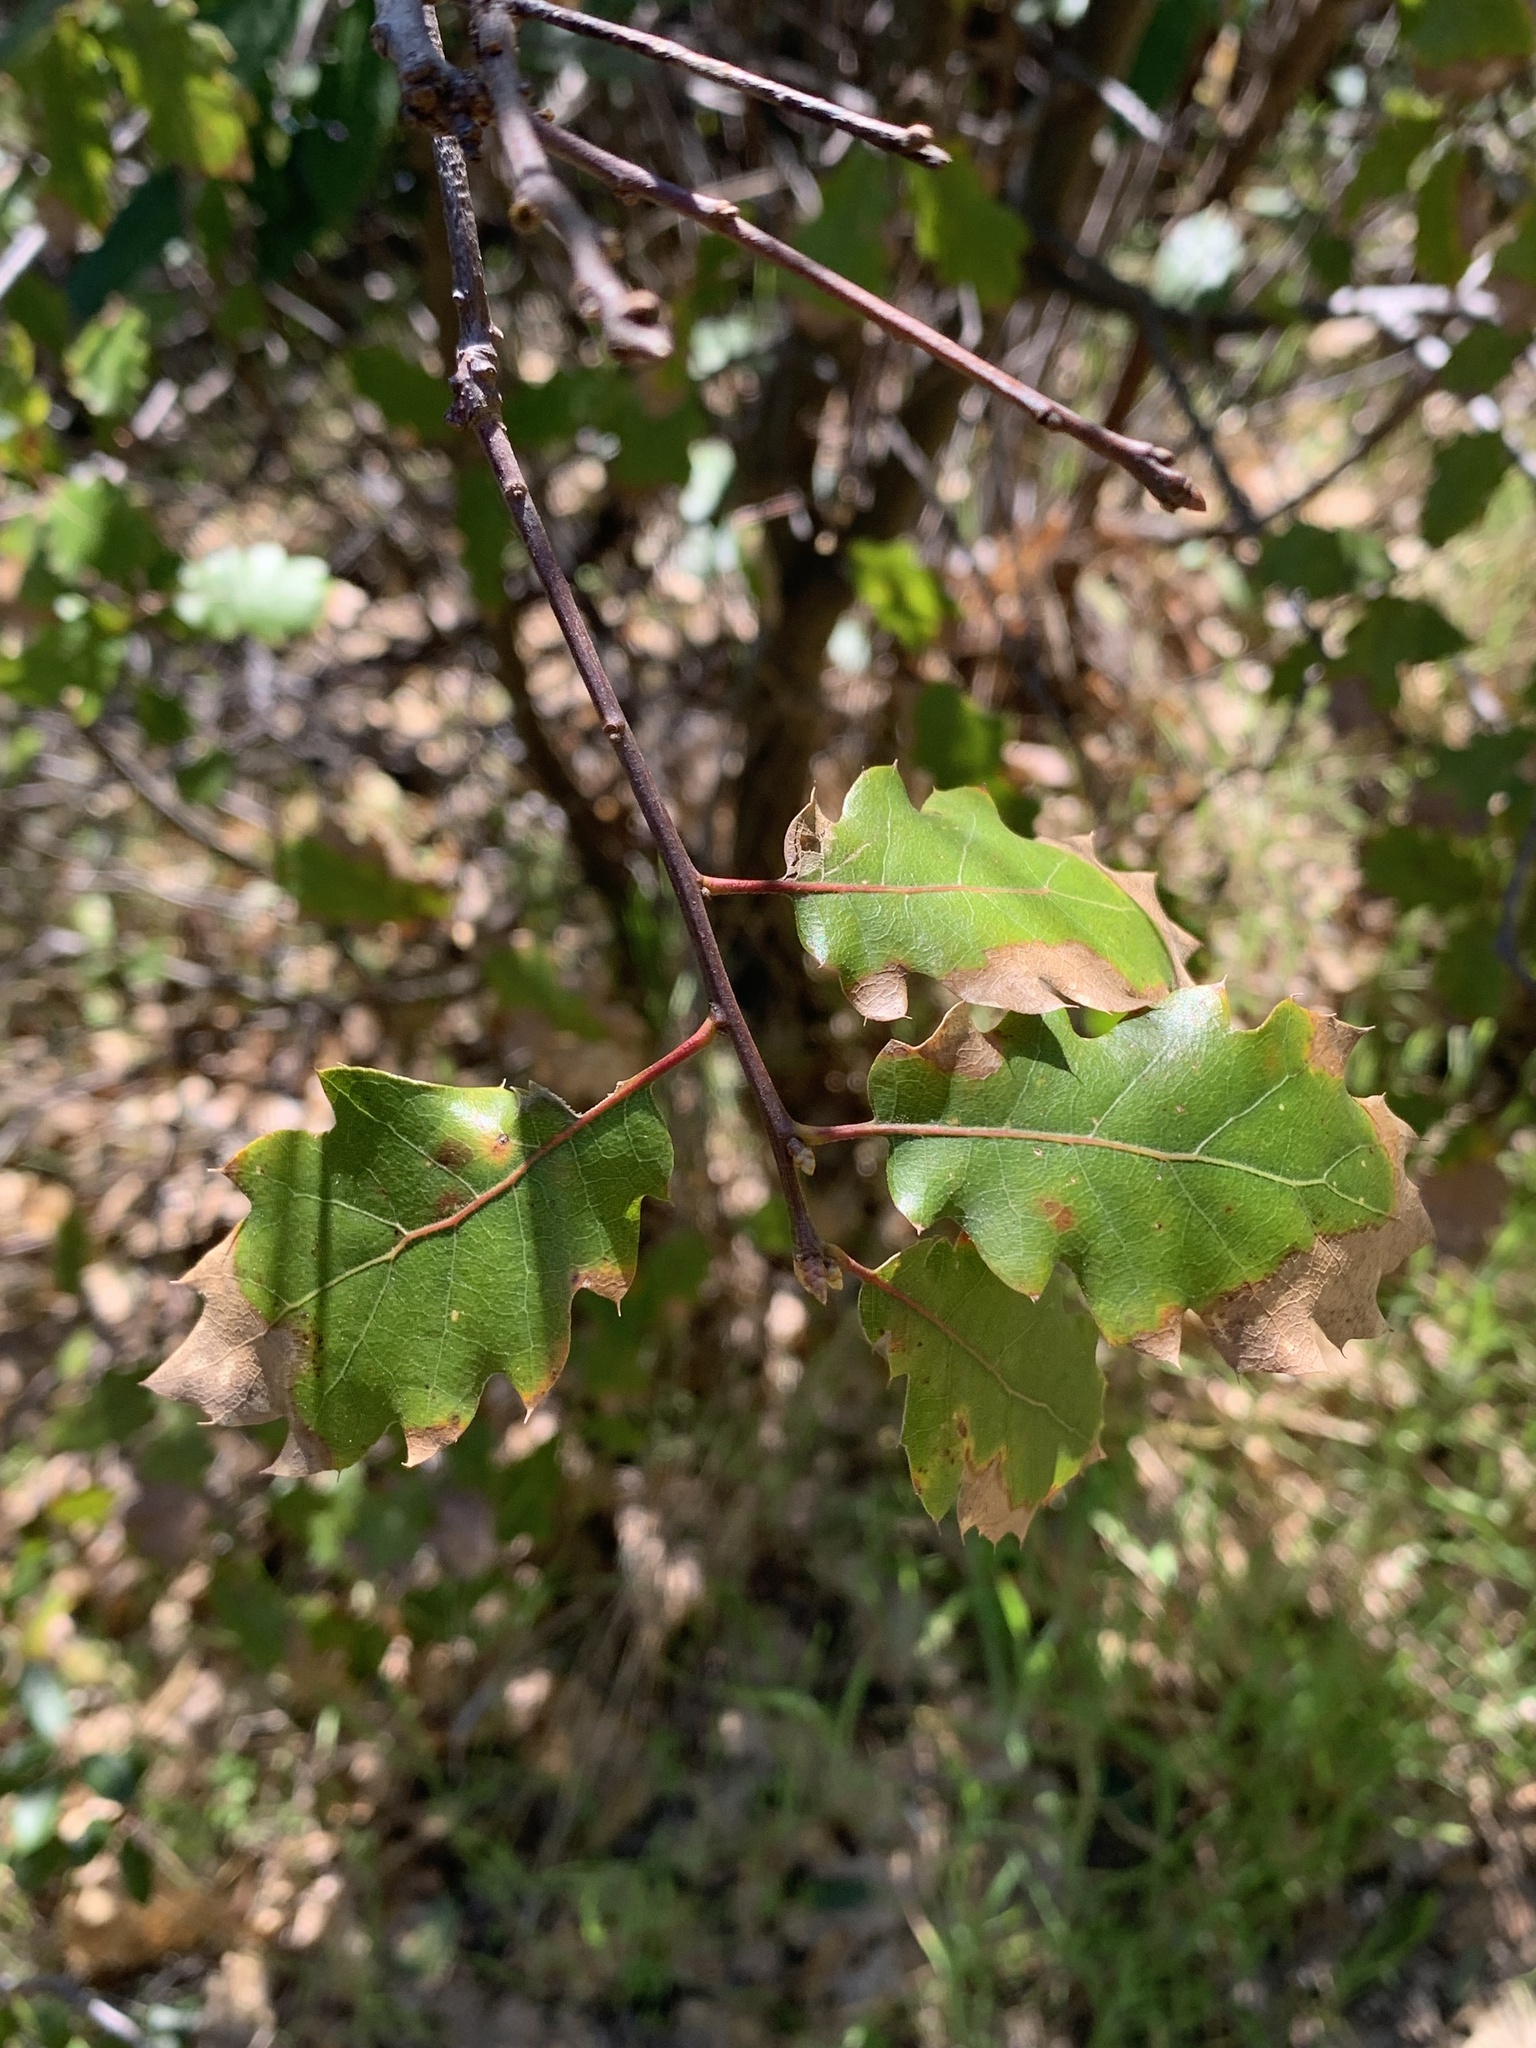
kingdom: Plantae
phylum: Tracheophyta
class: Magnoliopsida
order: Fagales
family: Fagaceae
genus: Quercus
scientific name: Quercus morehus
